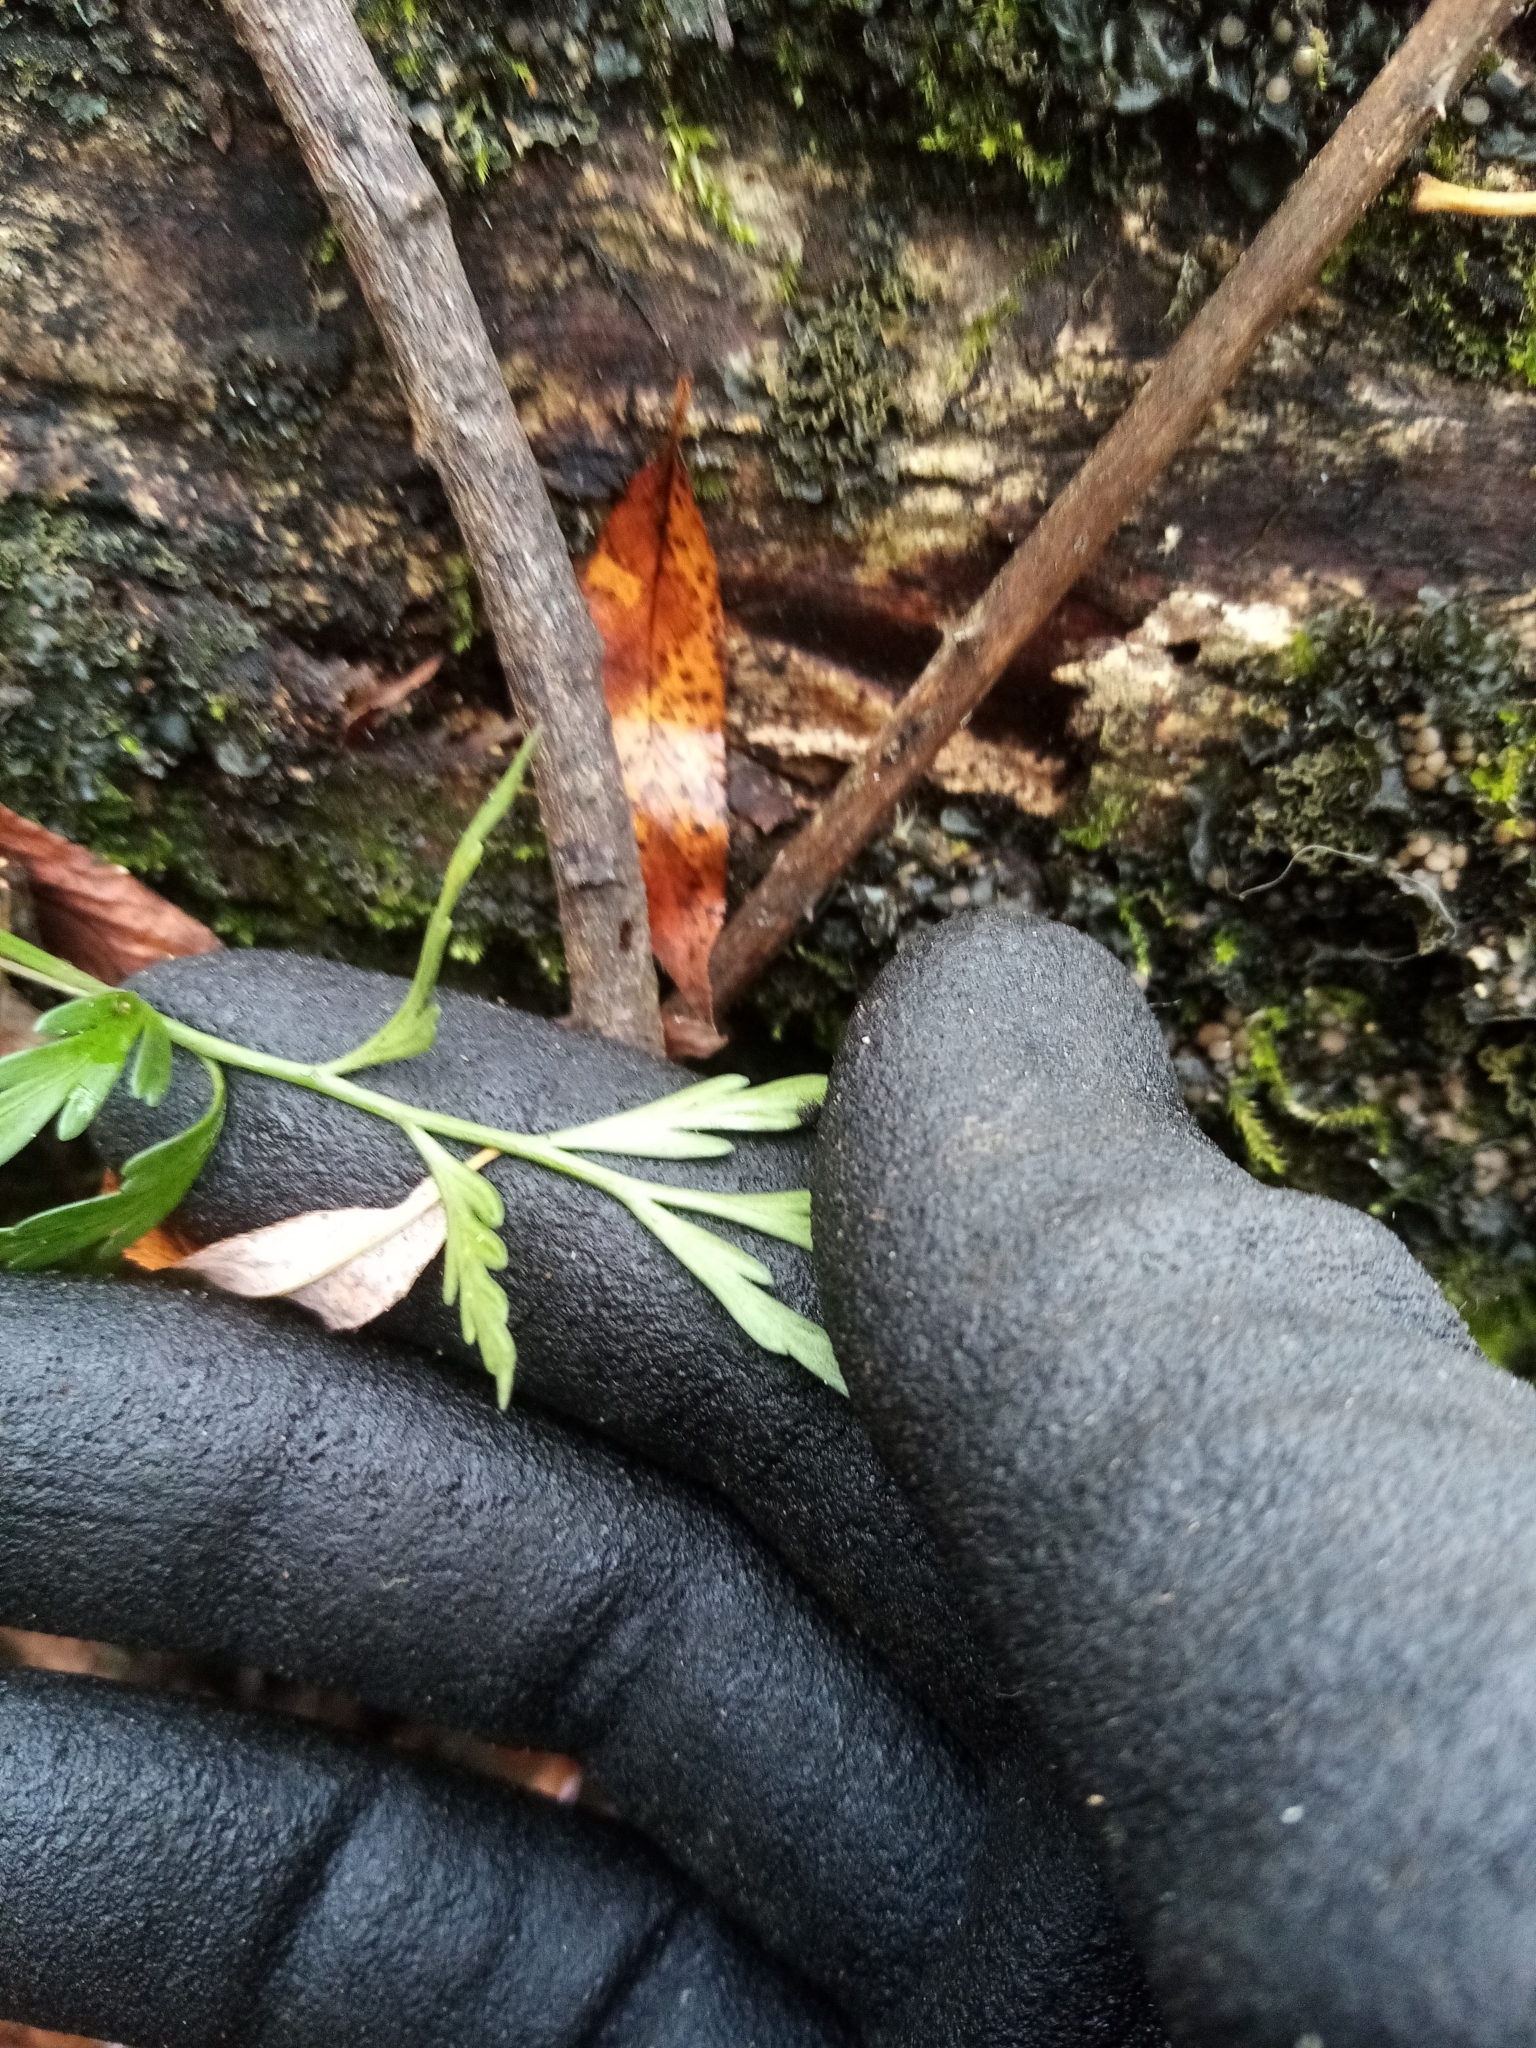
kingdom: Plantae
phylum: Tracheophyta
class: Polypodiopsida
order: Polypodiales
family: Aspleniaceae
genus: Asplenium
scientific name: Asplenium flaccidum
